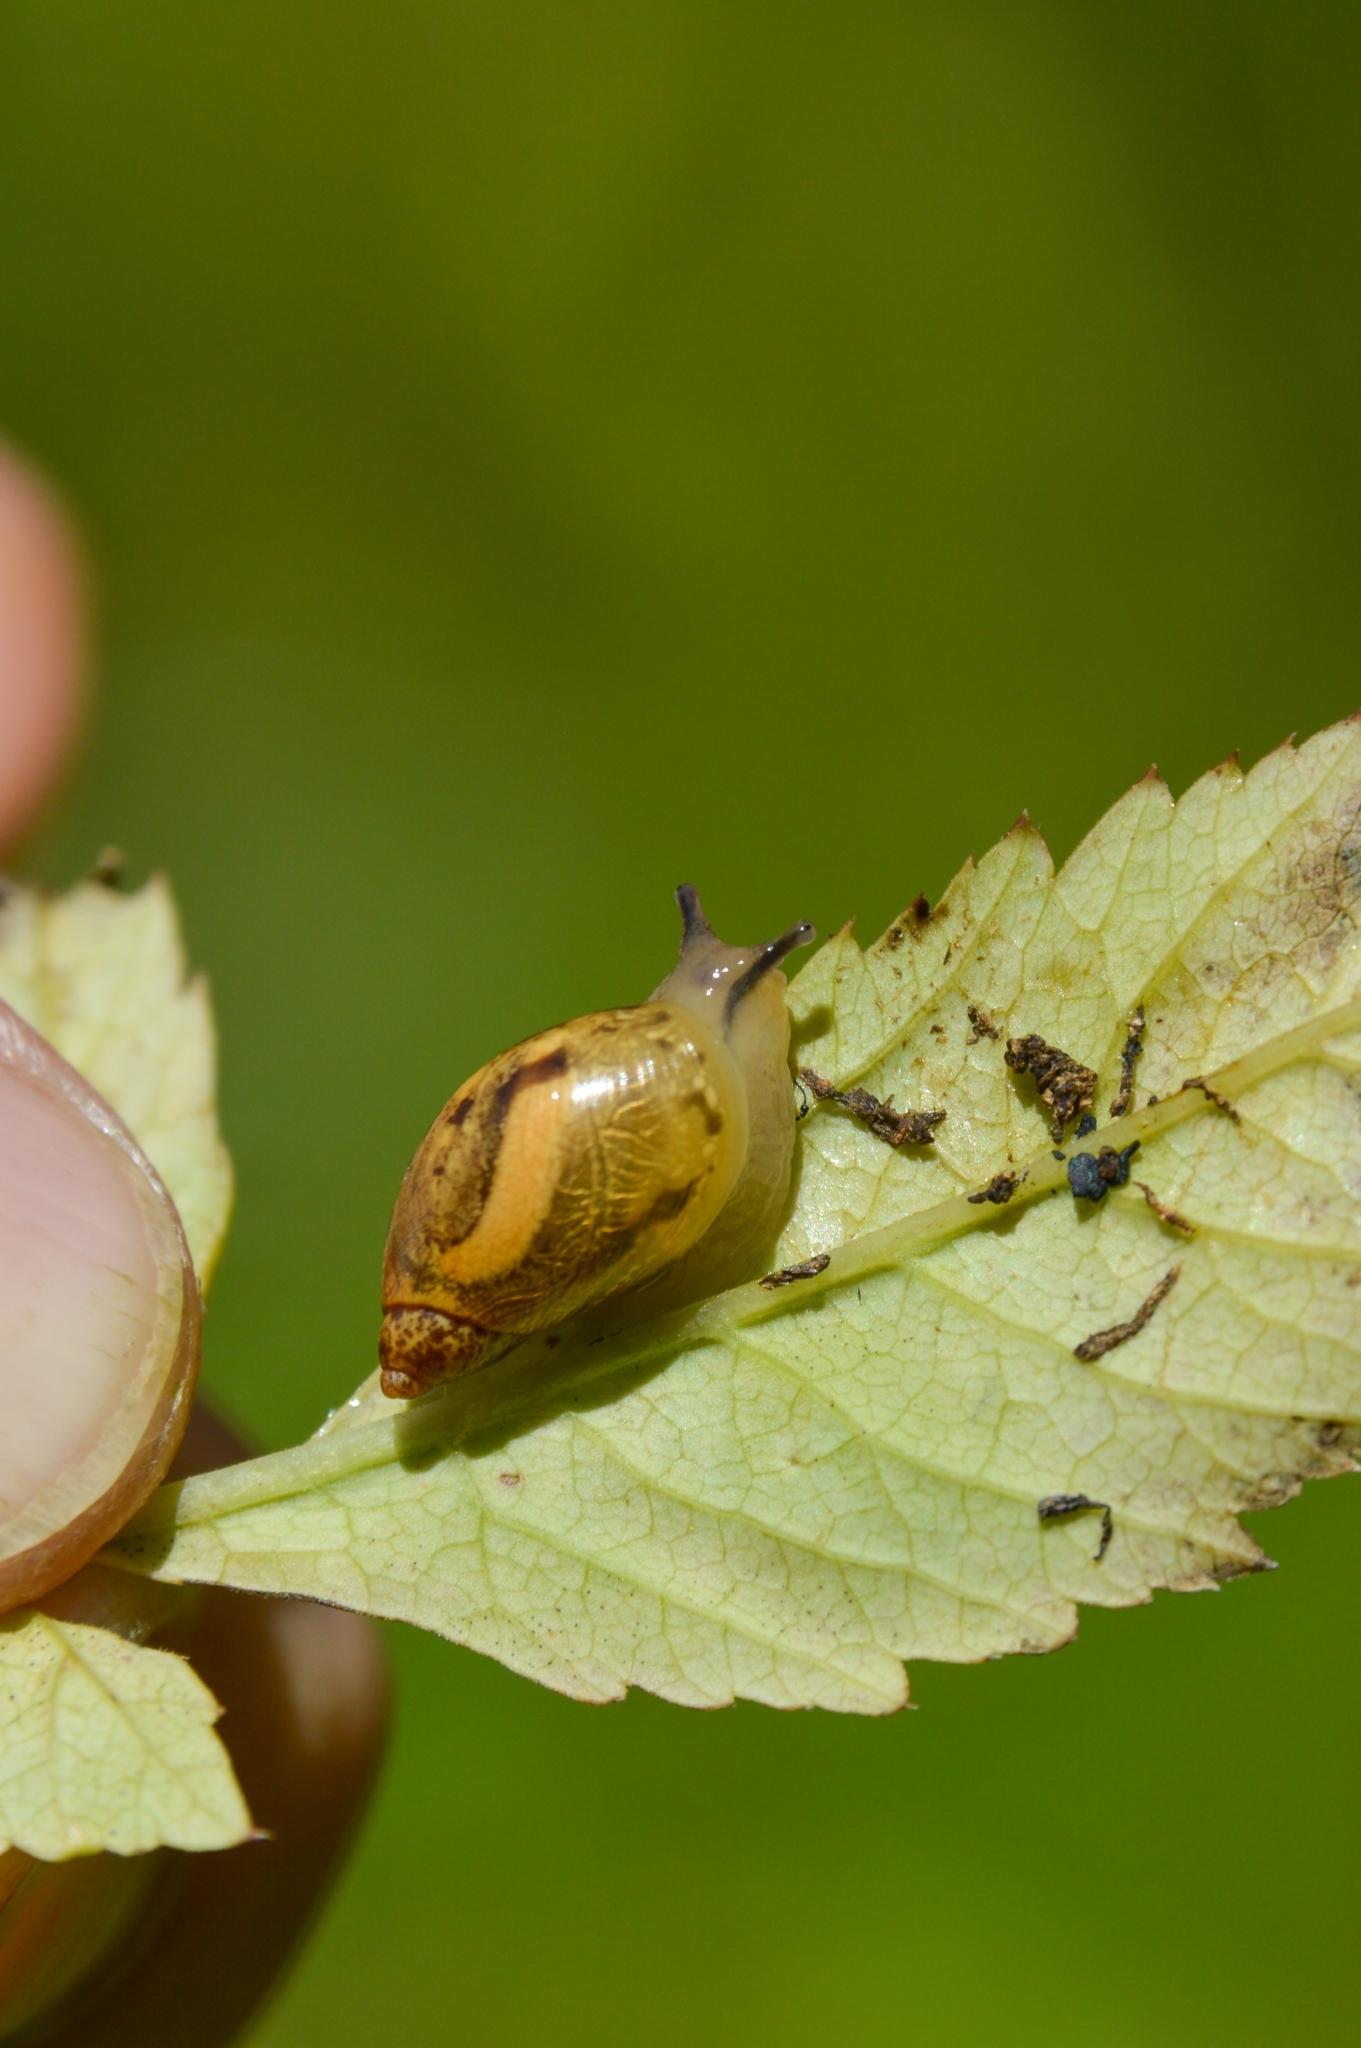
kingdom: Animalia
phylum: Mollusca
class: Gastropoda
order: Stylommatophora
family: Succineidae
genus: Succinea
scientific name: Succinea putris
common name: European ambersnail
